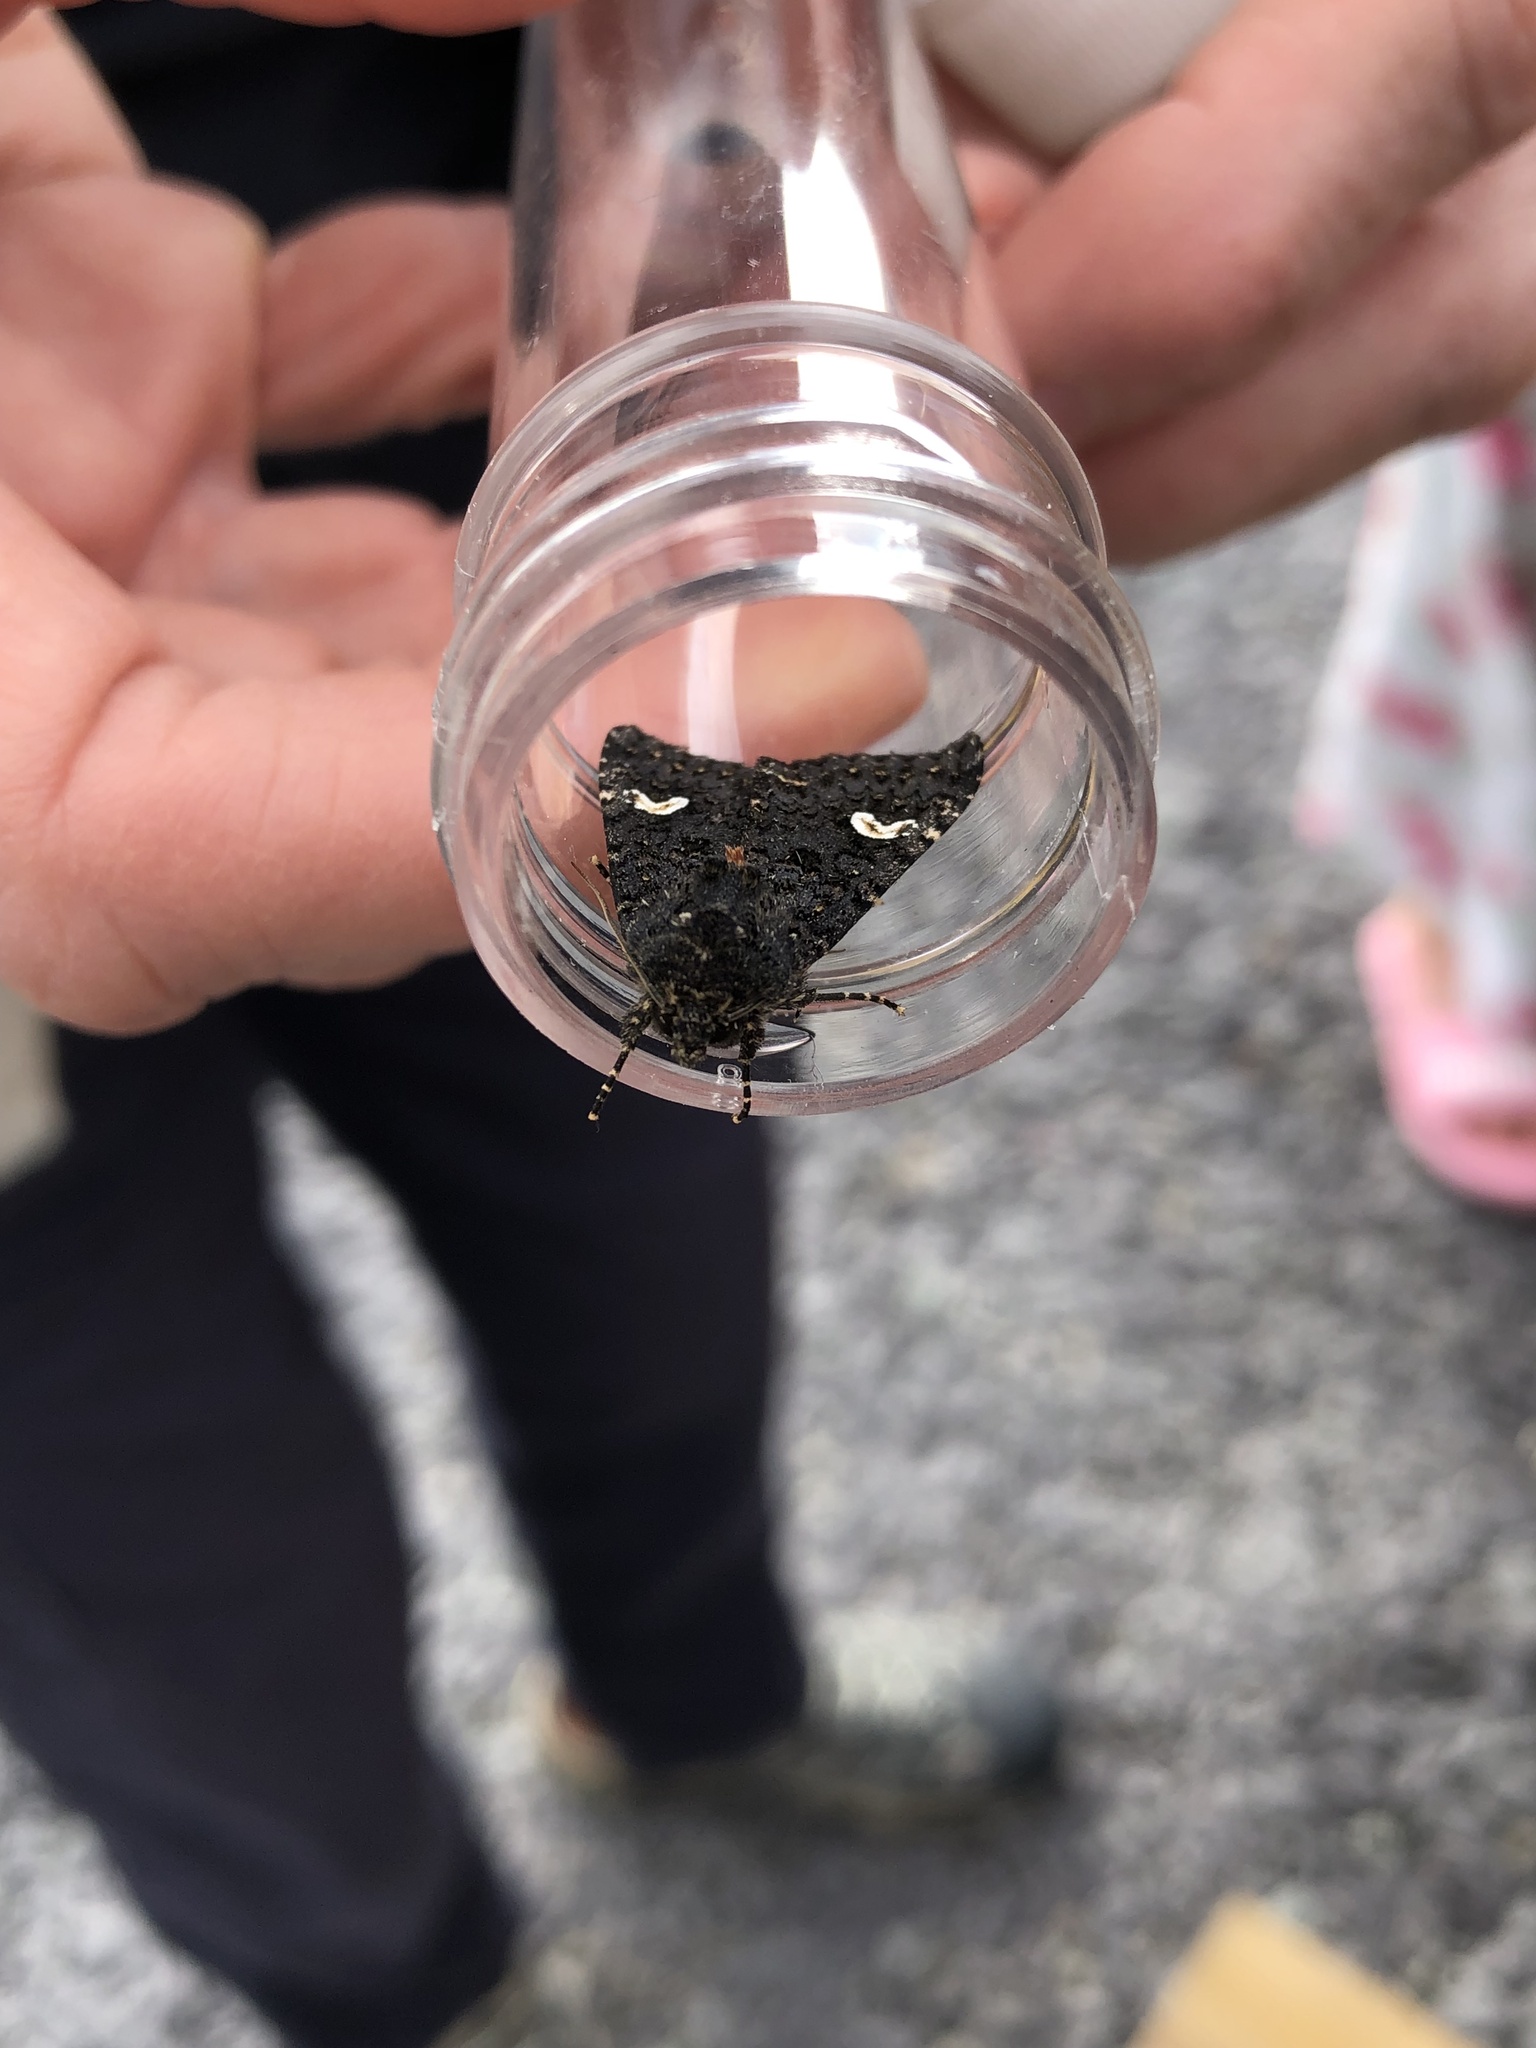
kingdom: Animalia
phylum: Arthropoda
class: Insecta
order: Lepidoptera
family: Noctuidae
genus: Melanchra
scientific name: Melanchra persicariae
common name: Dot moth
